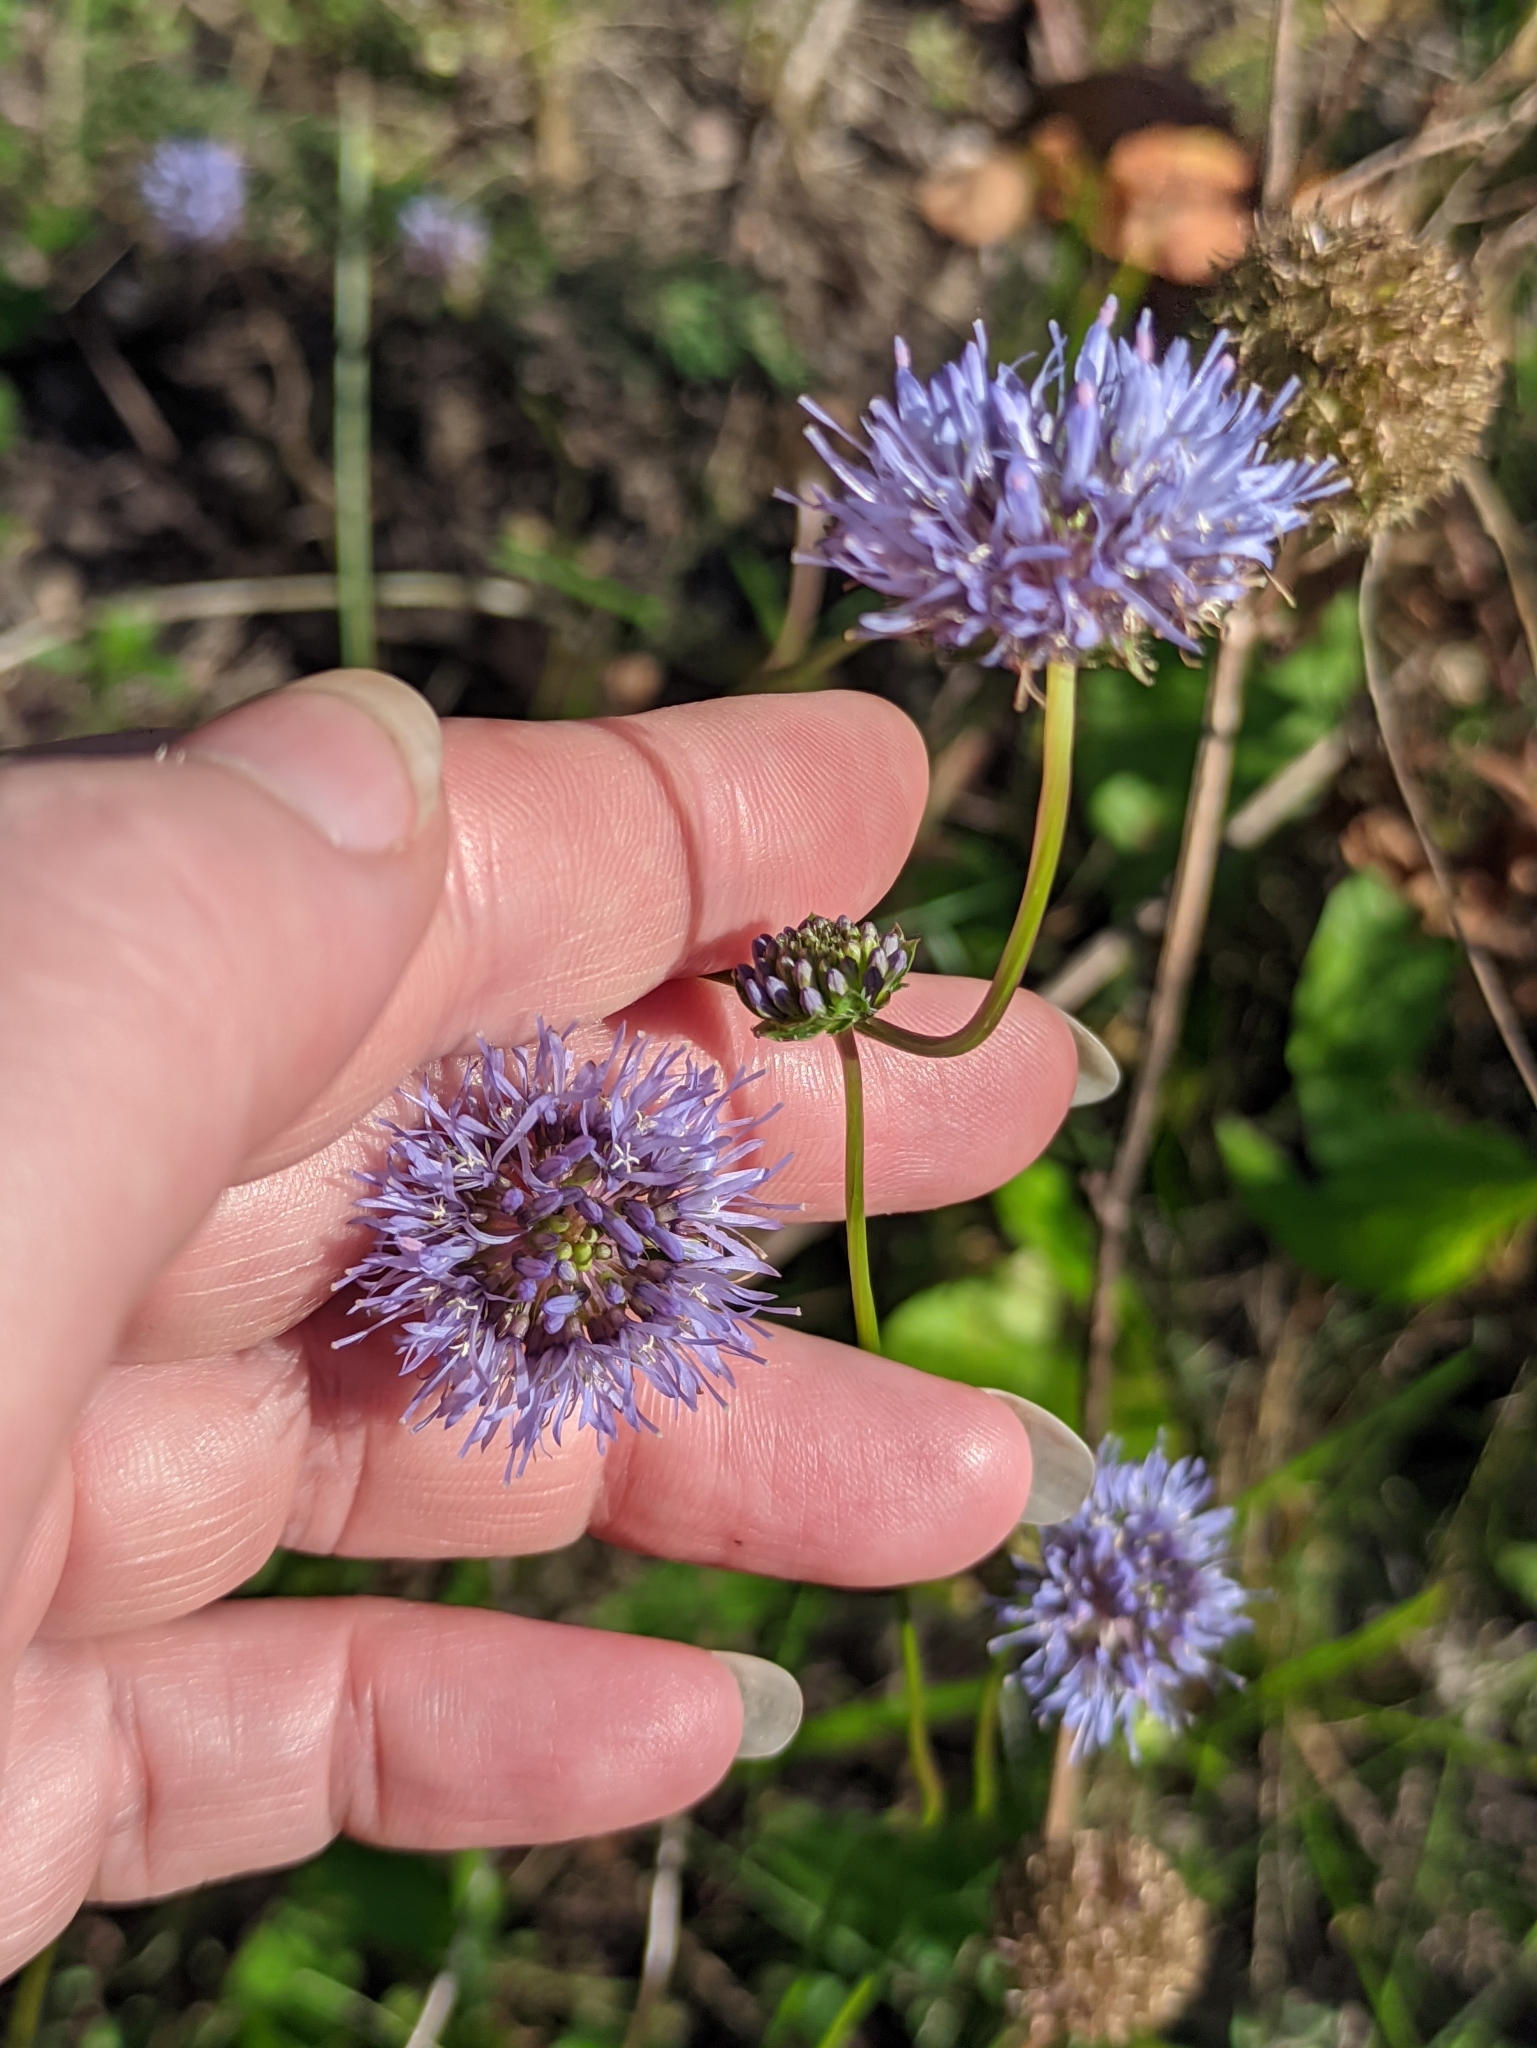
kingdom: Plantae
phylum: Tracheophyta
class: Magnoliopsida
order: Asterales
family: Campanulaceae
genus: Jasione
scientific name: Jasione montana
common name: Sheep's-bit
